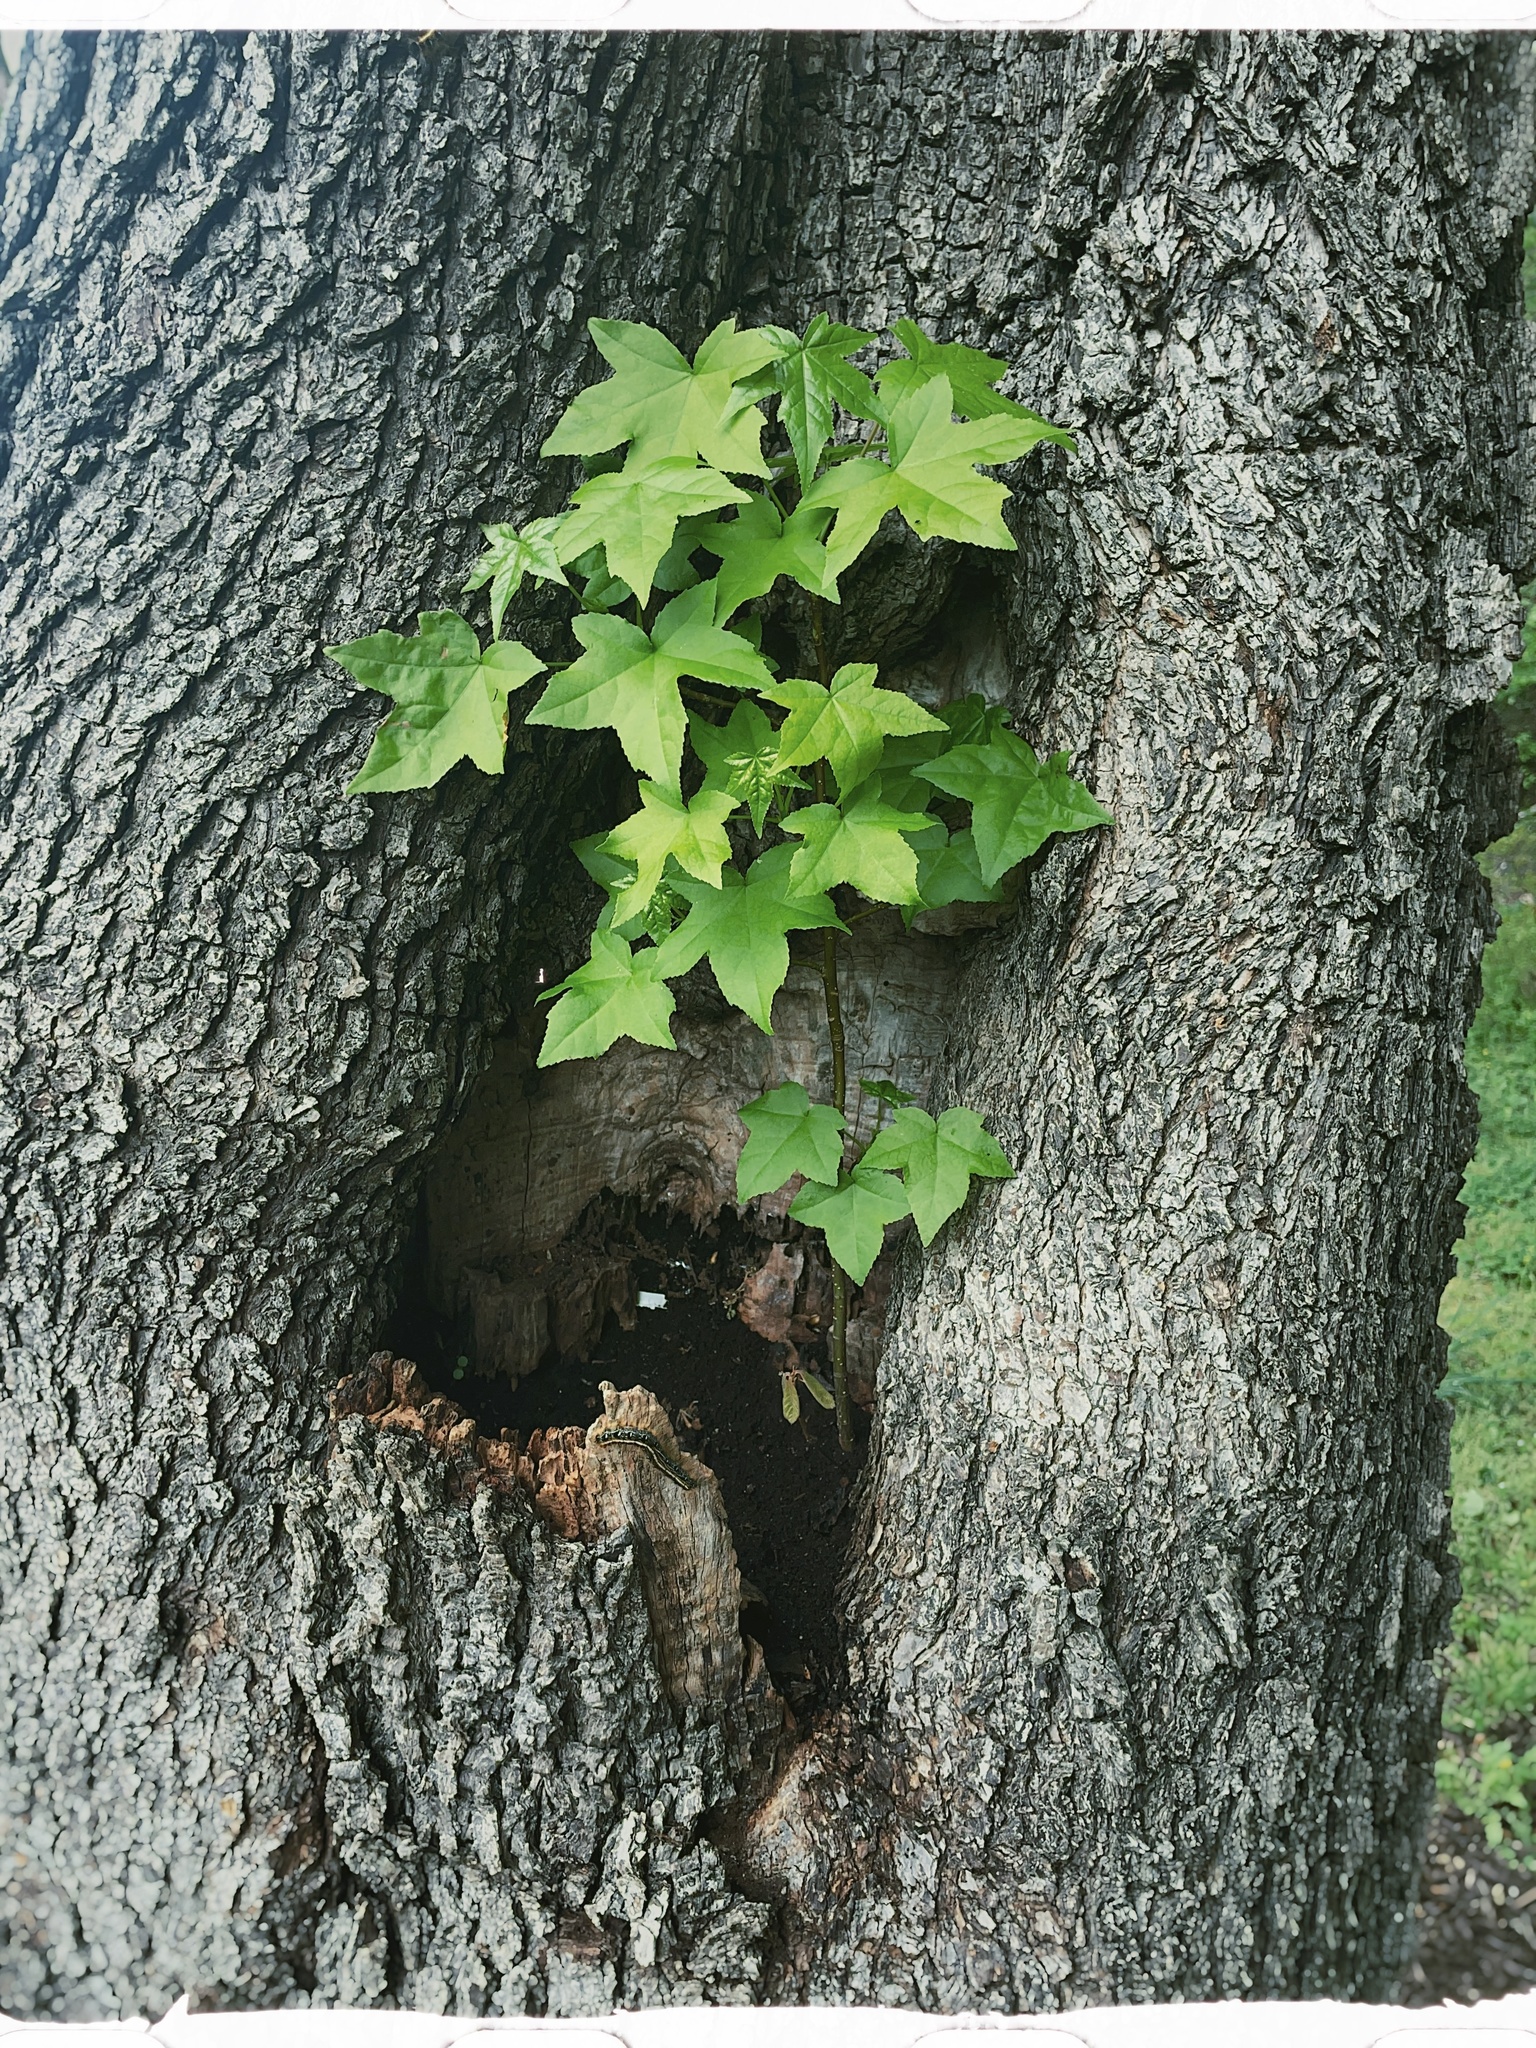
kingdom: Plantae
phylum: Tracheophyta
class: Magnoliopsida
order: Saxifragales
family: Altingiaceae
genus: Liquidambar
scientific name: Liquidambar styraciflua
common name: Sweet gum
